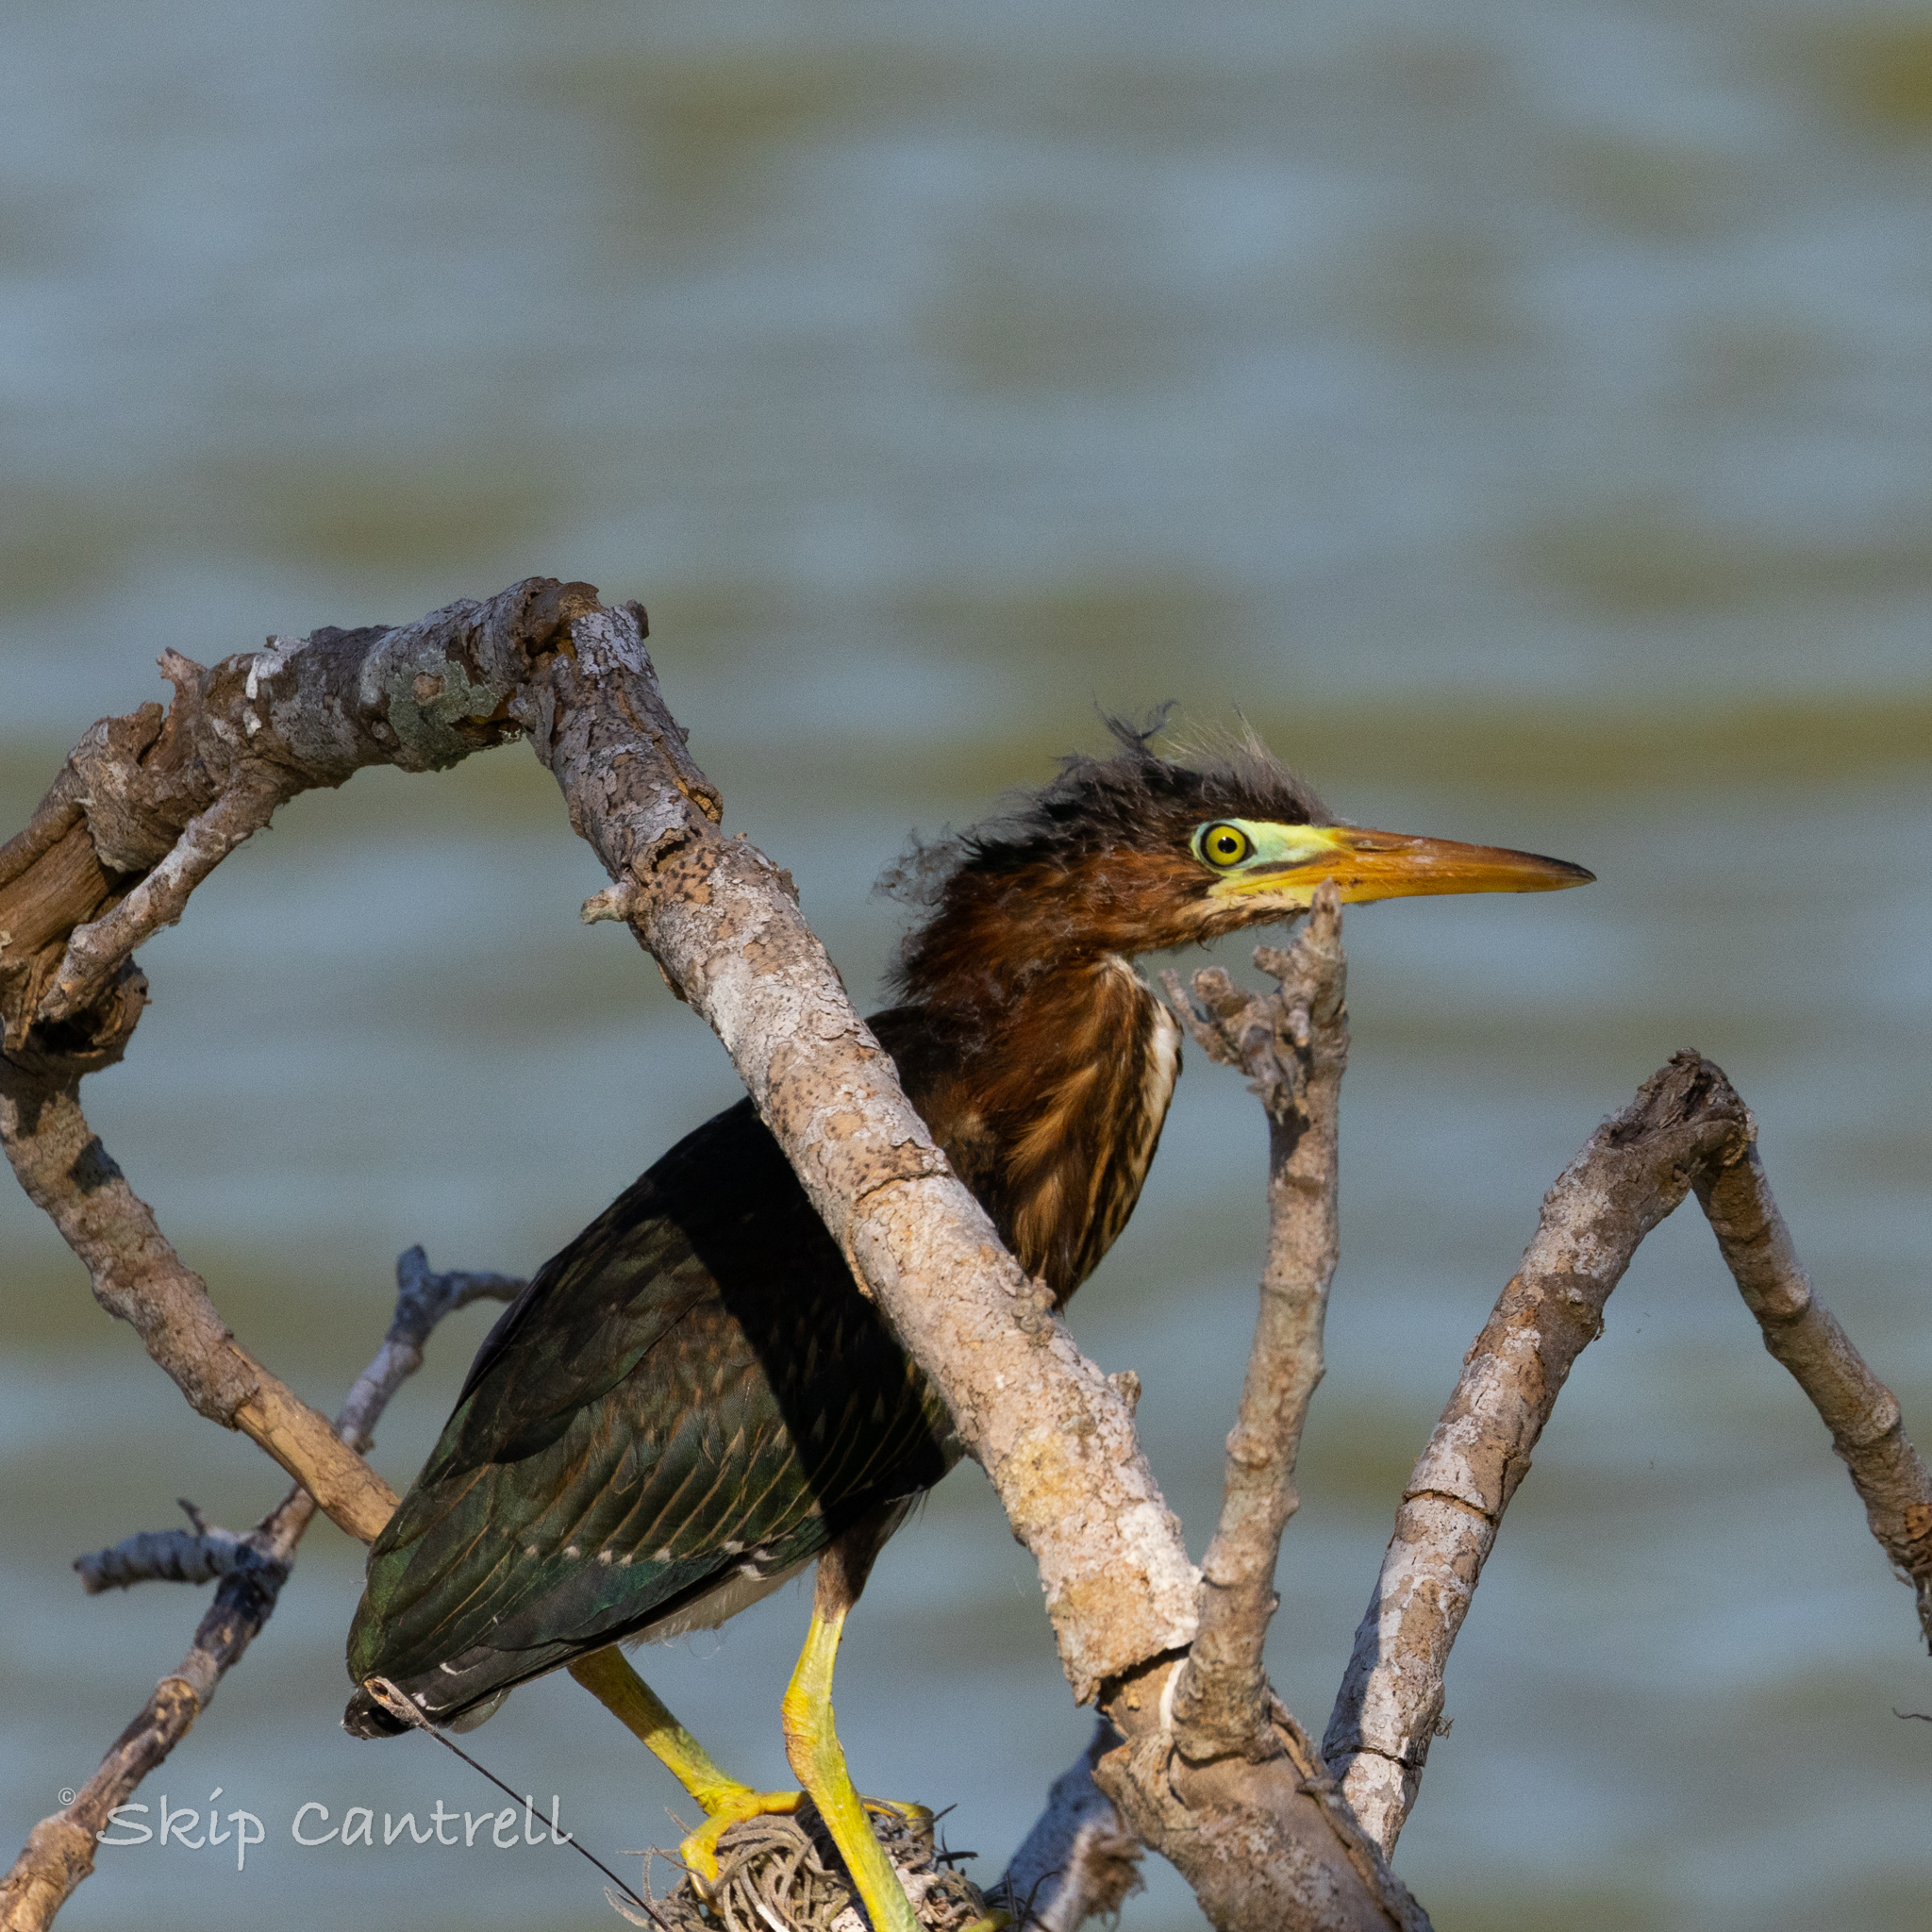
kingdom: Animalia
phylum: Chordata
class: Aves
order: Pelecaniformes
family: Ardeidae
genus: Butorides
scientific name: Butorides virescens
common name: Green heron
